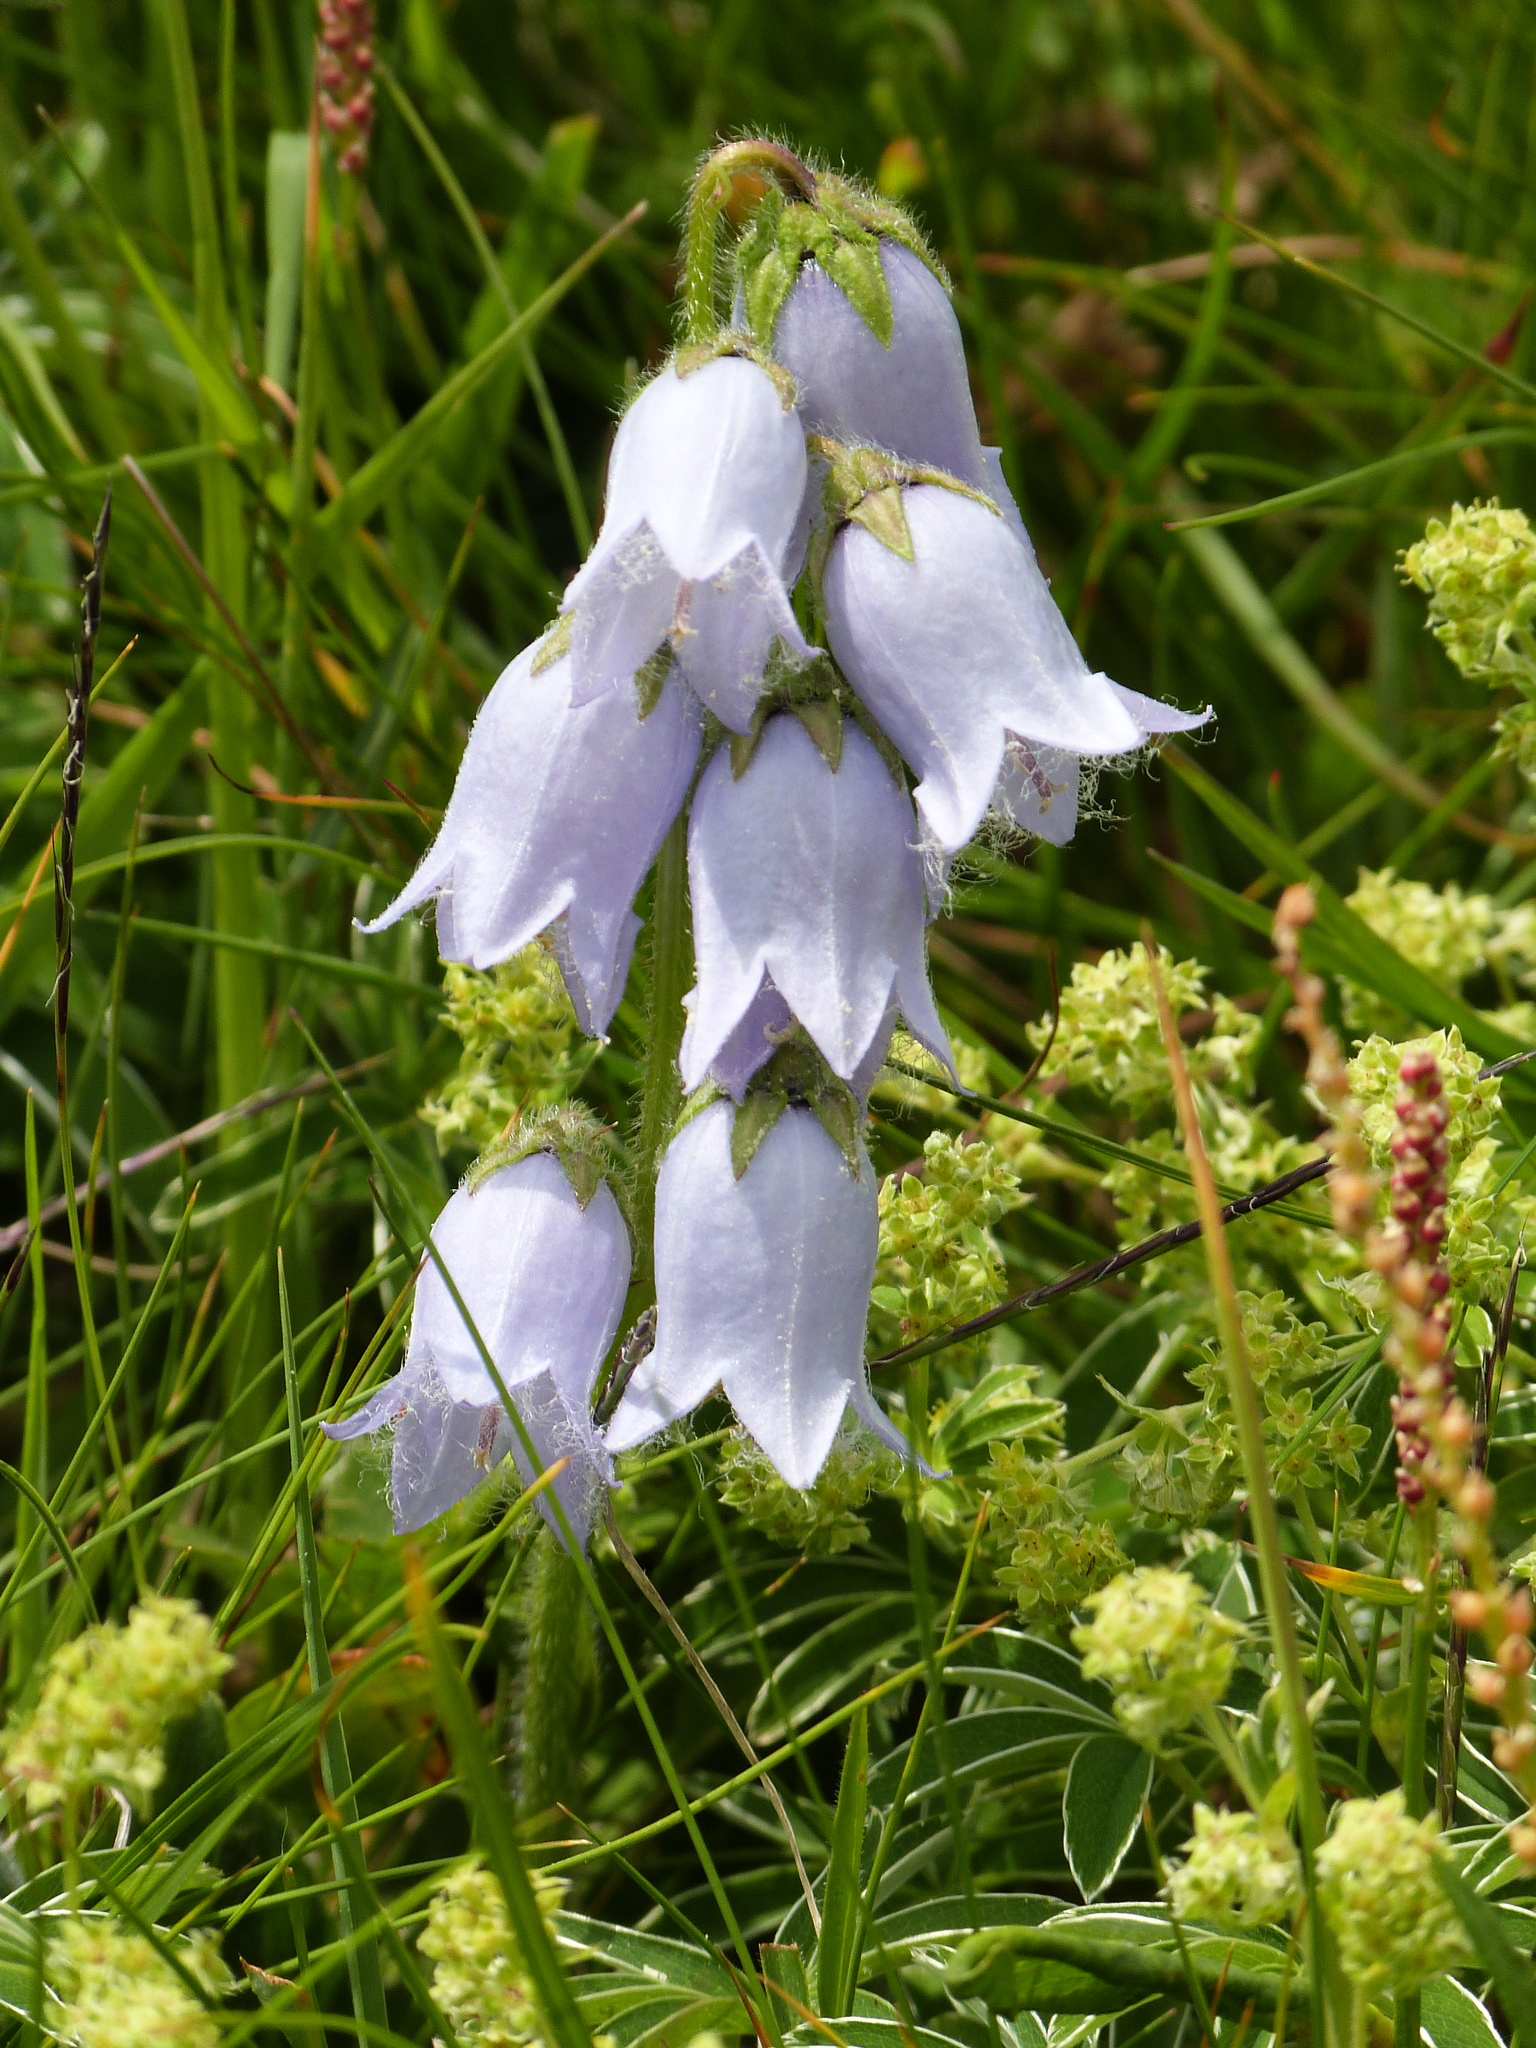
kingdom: Plantae
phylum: Tracheophyta
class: Magnoliopsida
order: Asterales
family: Campanulaceae
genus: Campanula
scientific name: Campanula barbata
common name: Bearded bellflower
